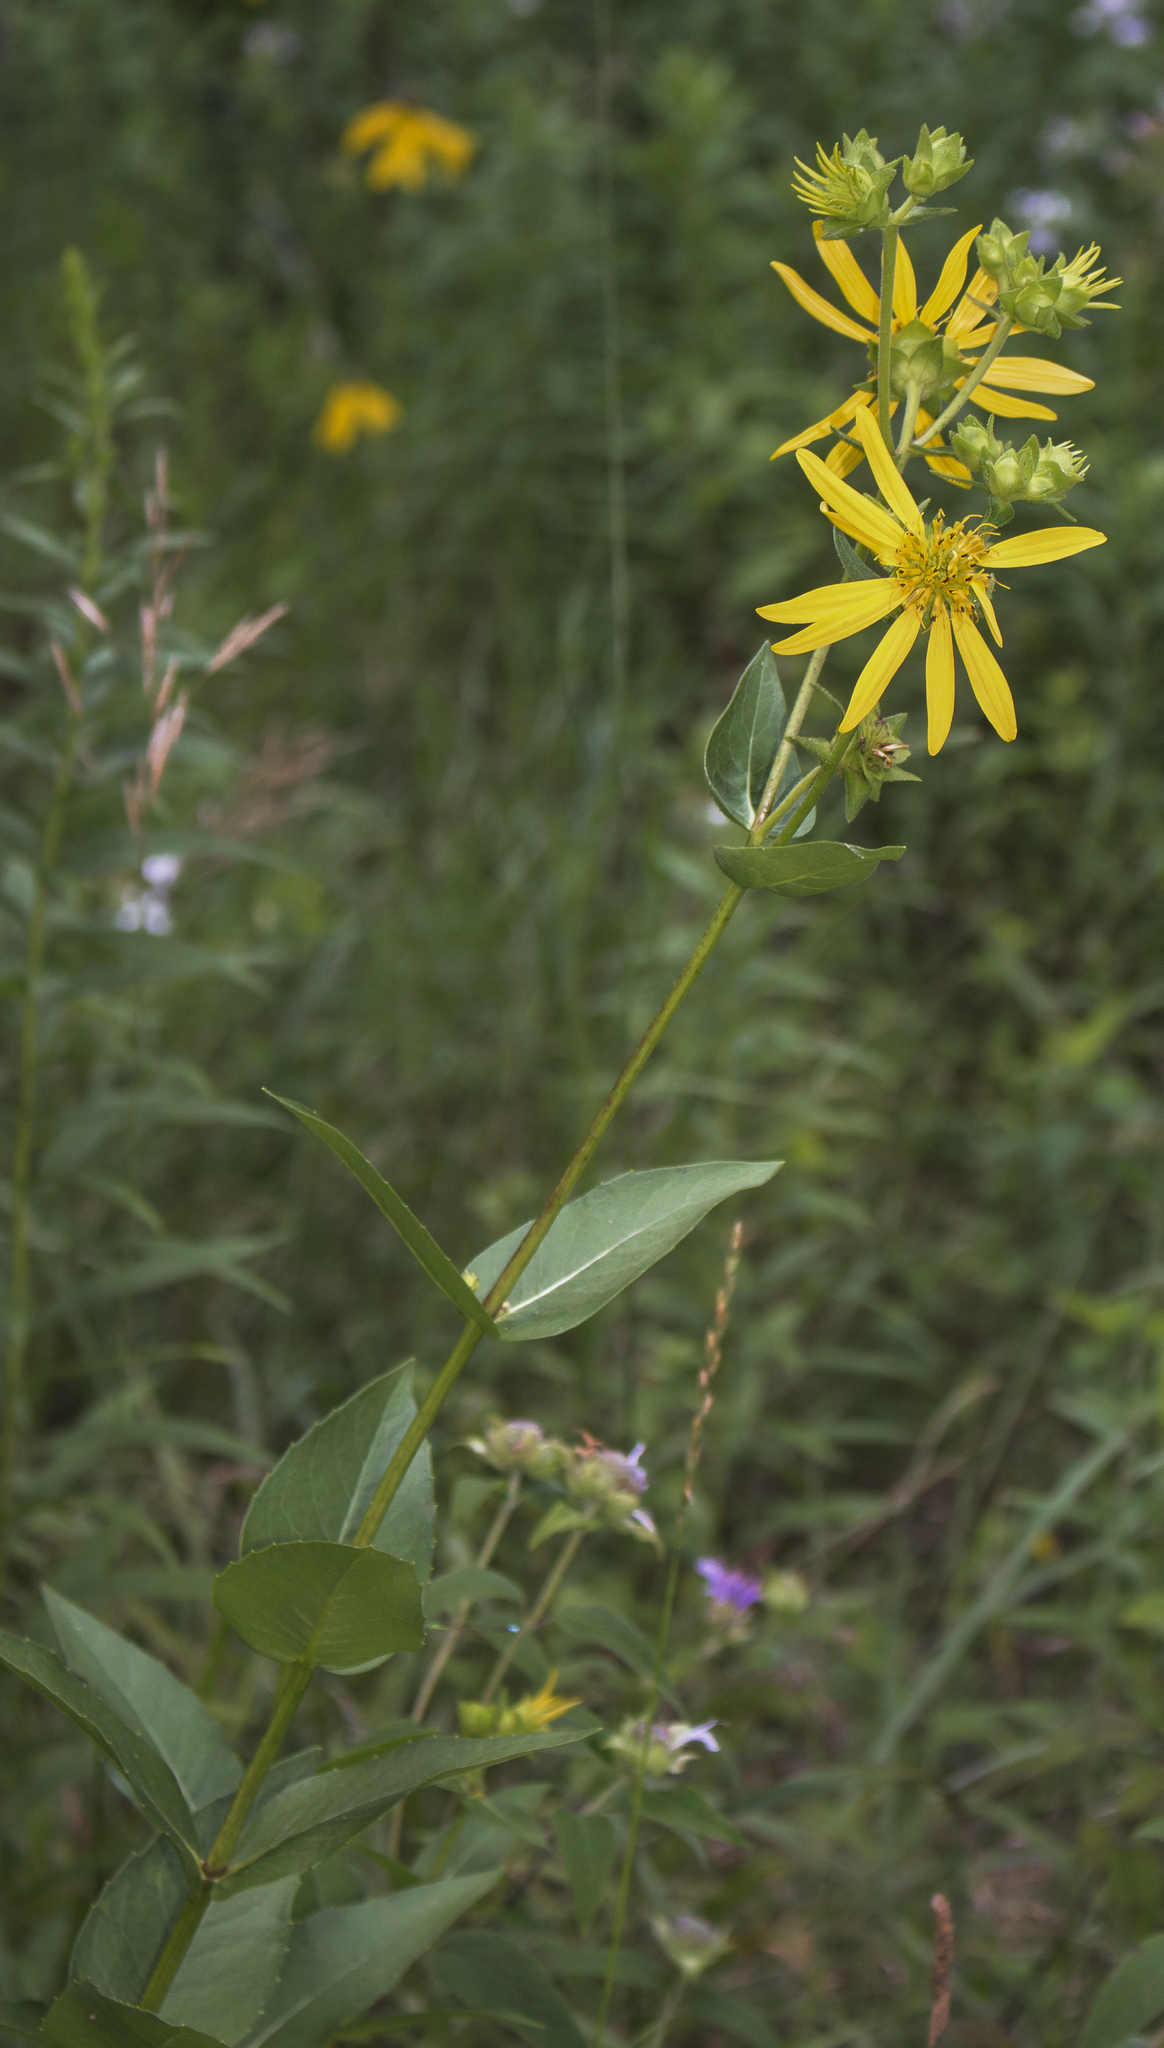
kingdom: Plantae
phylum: Tracheophyta
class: Magnoliopsida
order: Asterales
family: Asteraceae
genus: Silphium
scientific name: Silphium integrifolium
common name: Whole-leaf rosinweed
